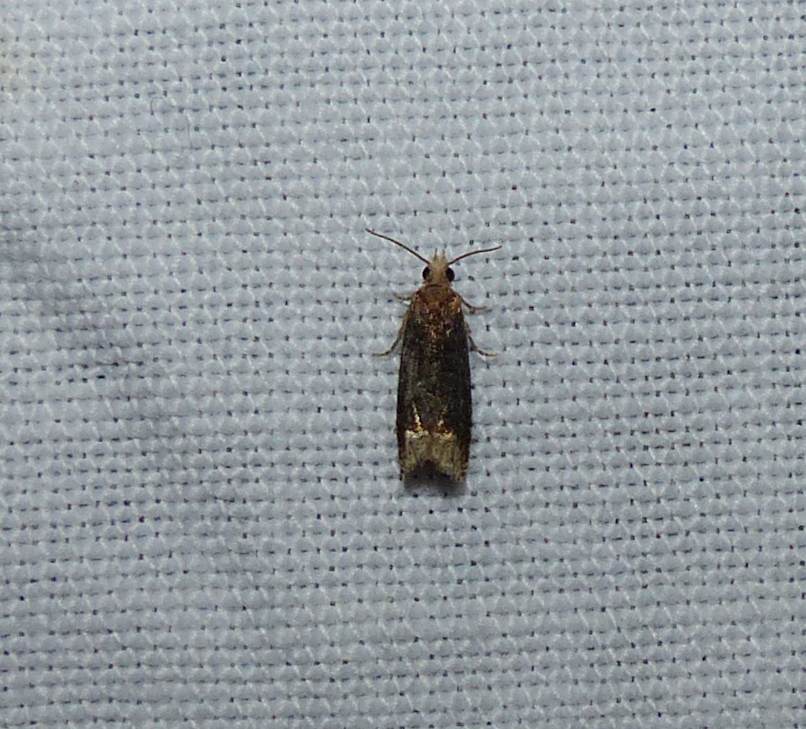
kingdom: Animalia
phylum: Arthropoda
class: Insecta
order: Lepidoptera
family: Tortricidae
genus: Eucosma
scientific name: Eucosma ochroterminana
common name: Buff-tipped eucosma moth
